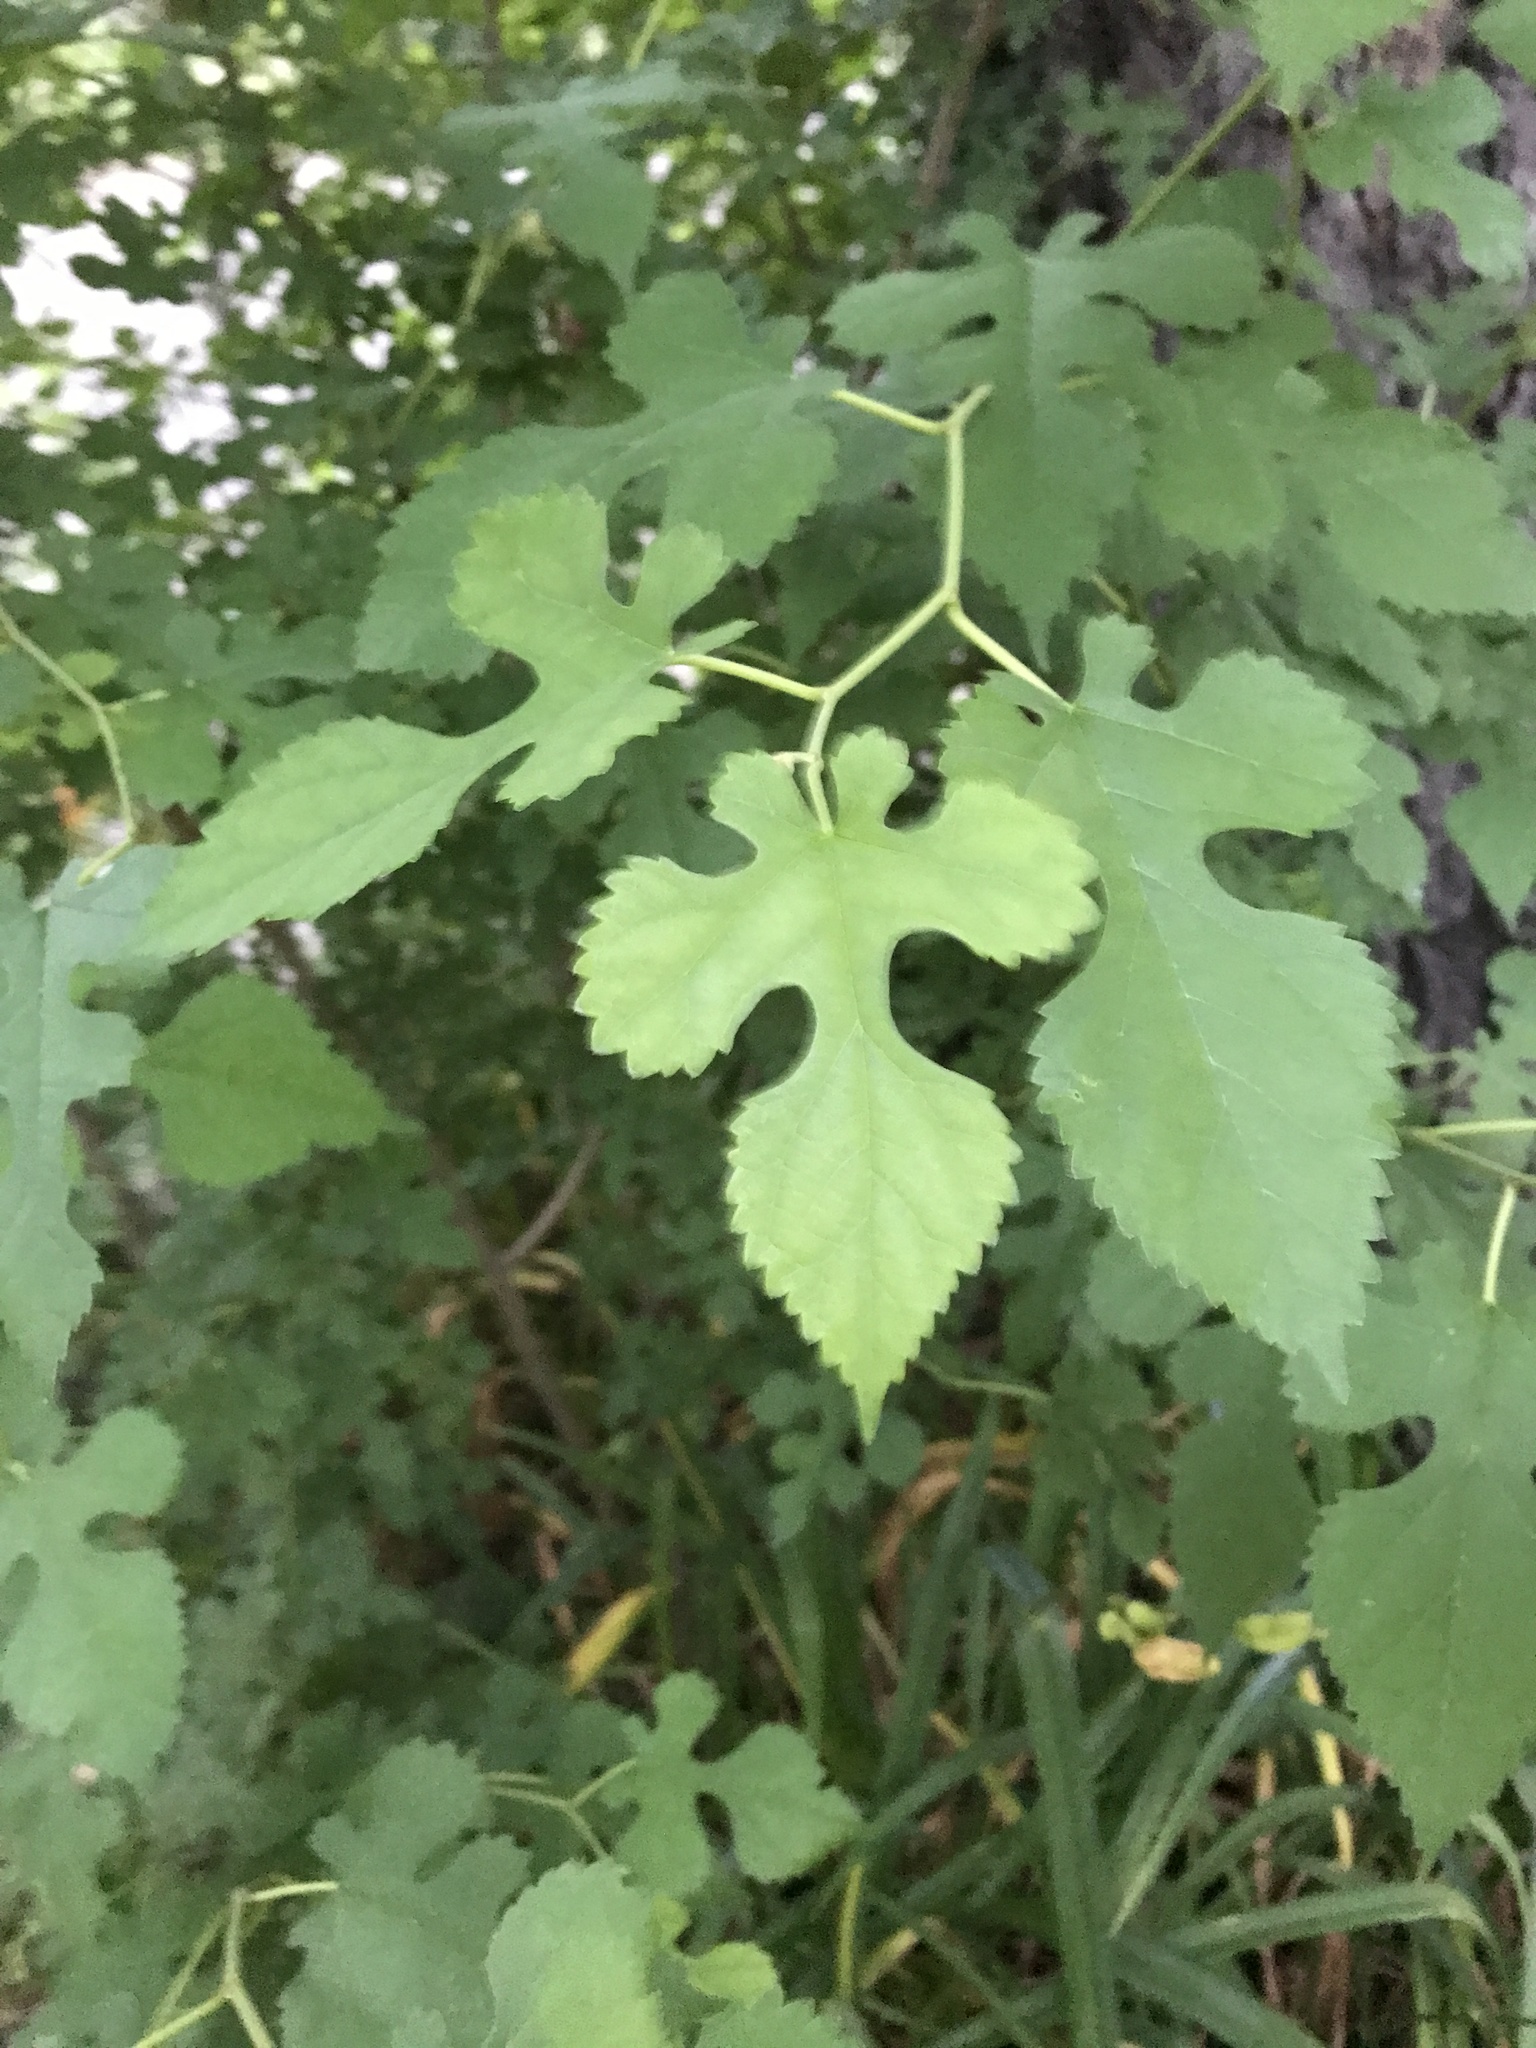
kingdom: Plantae
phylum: Tracheophyta
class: Magnoliopsida
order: Rosales
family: Moraceae
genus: Morus
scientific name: Morus alba
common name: White mulberry
